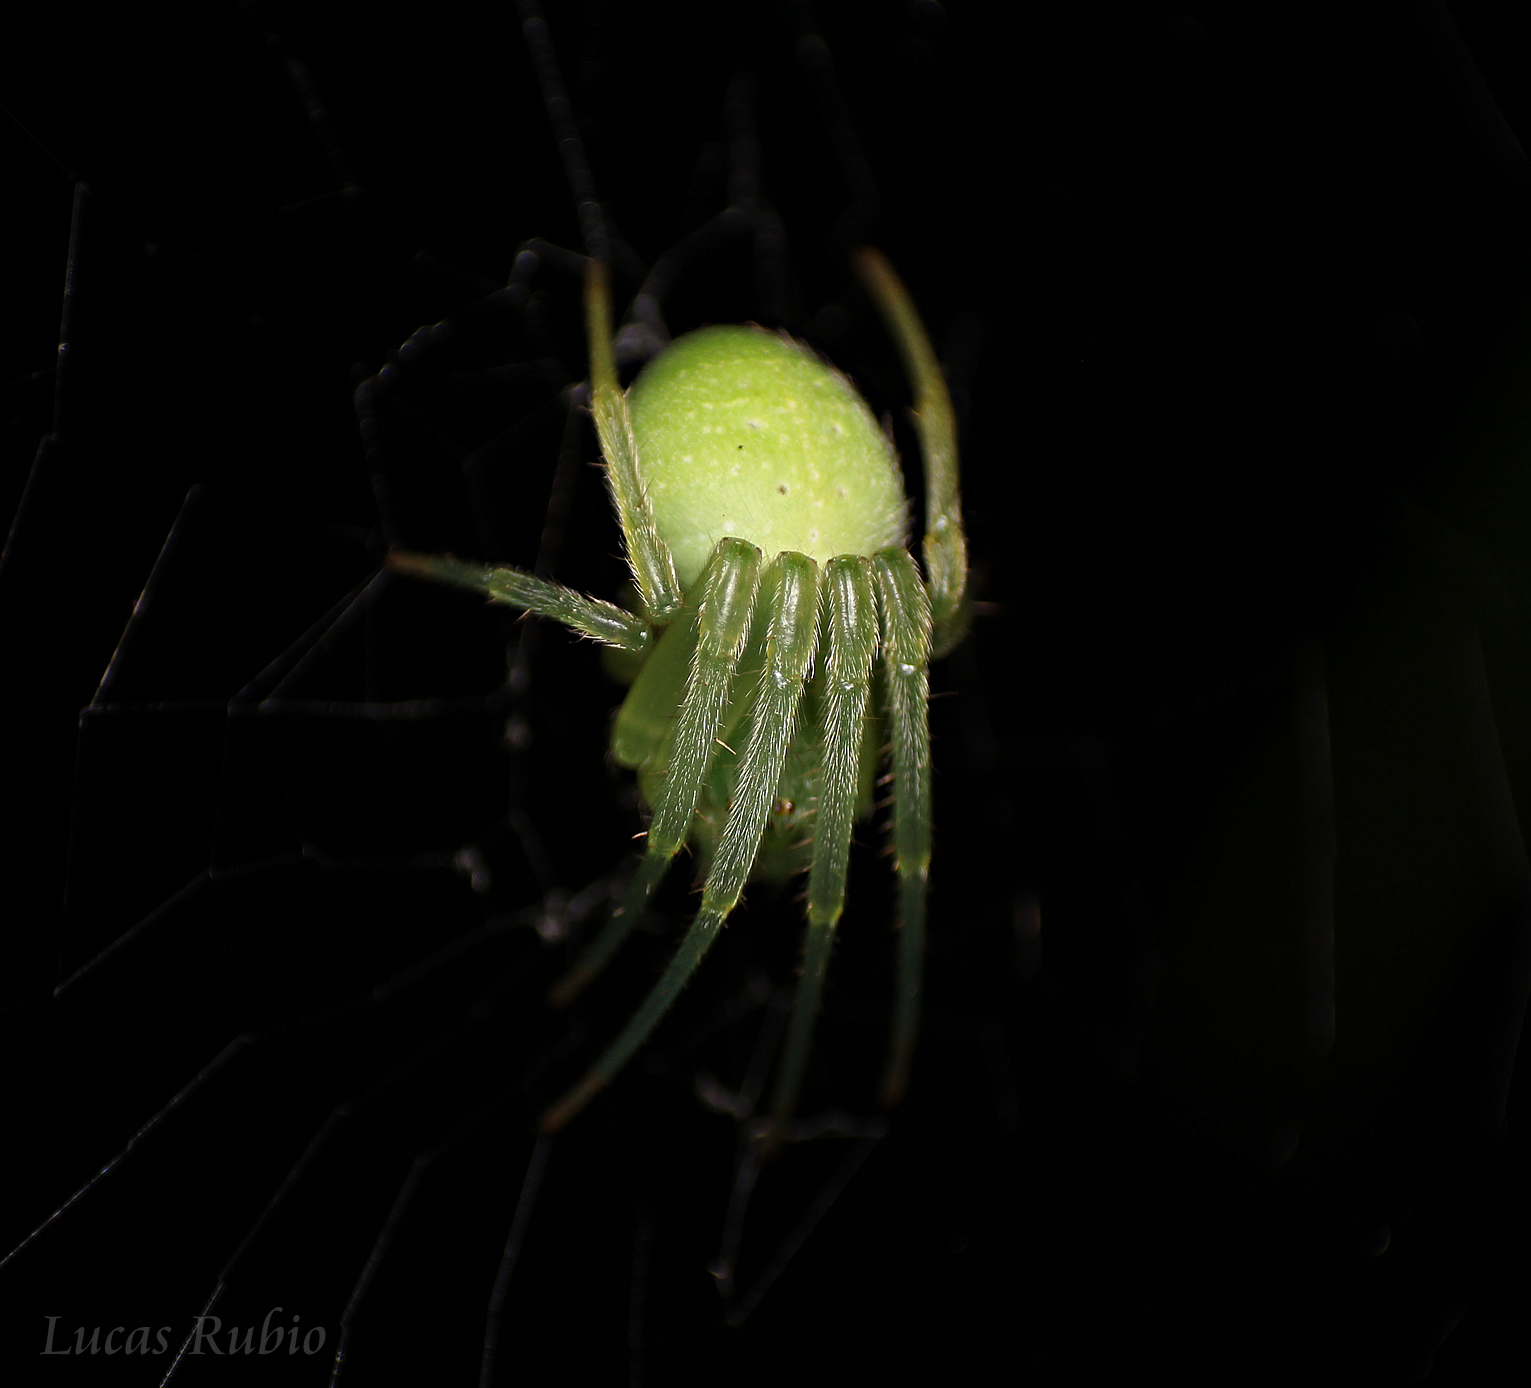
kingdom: Animalia
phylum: Arthropoda
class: Arachnida
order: Araneae
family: Araneidae
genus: Araneus
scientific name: Araneus uniformis
